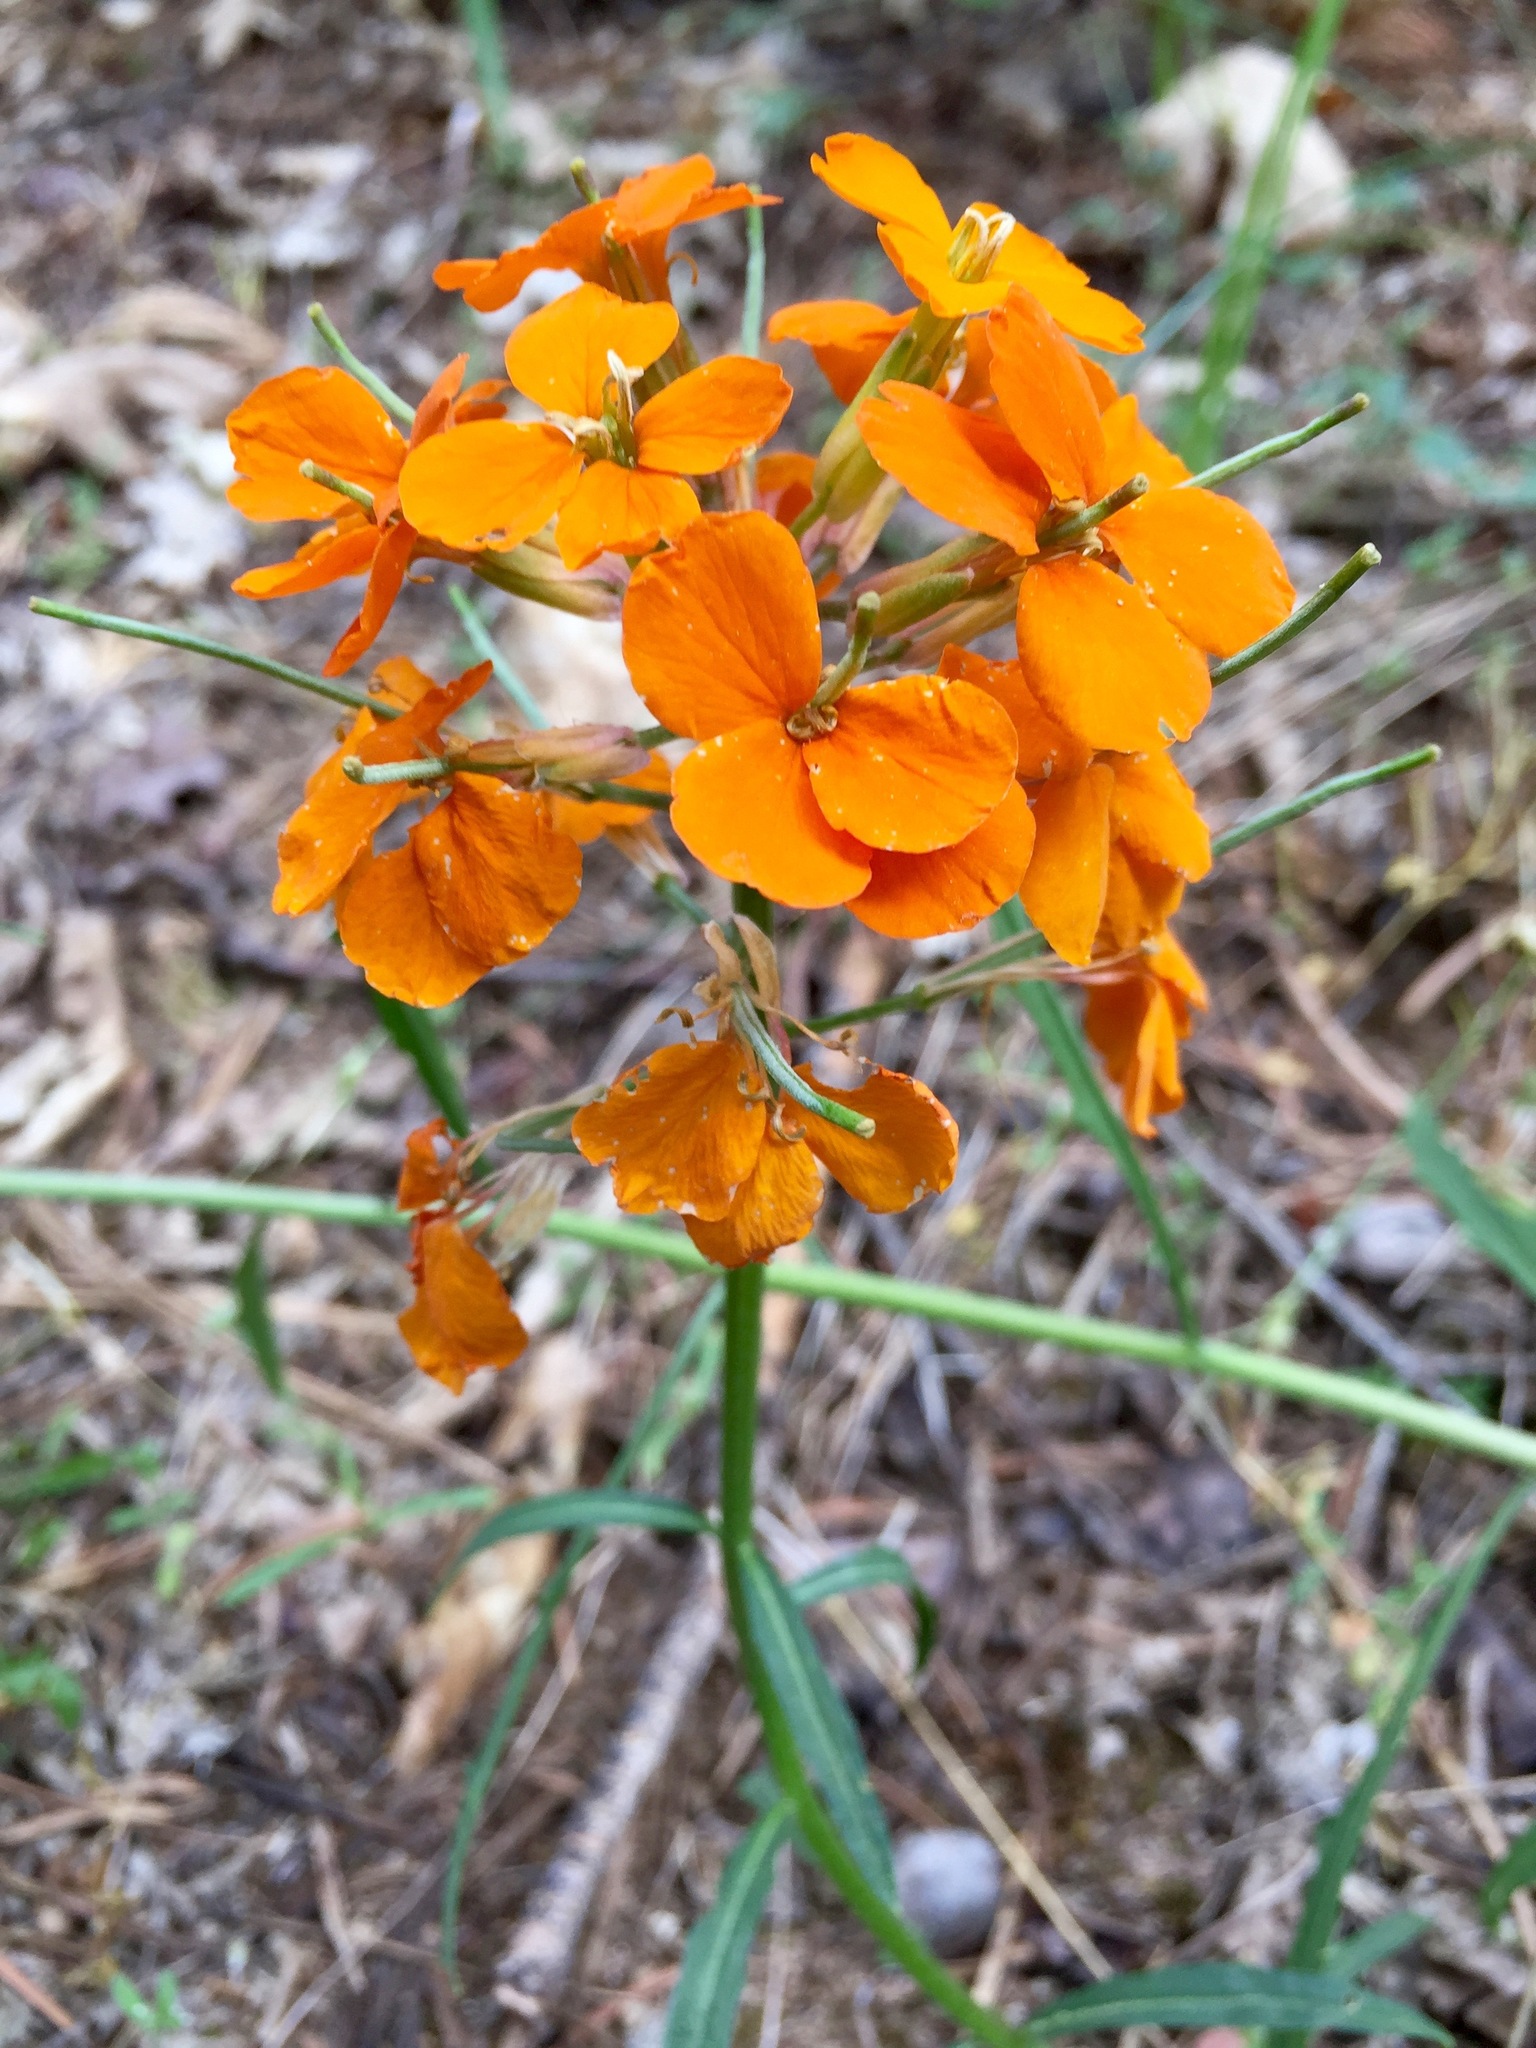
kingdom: Plantae
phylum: Tracheophyta
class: Magnoliopsida
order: Brassicales
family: Brassicaceae
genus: Erysimum
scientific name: Erysimum capitatum
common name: Western wallflower
